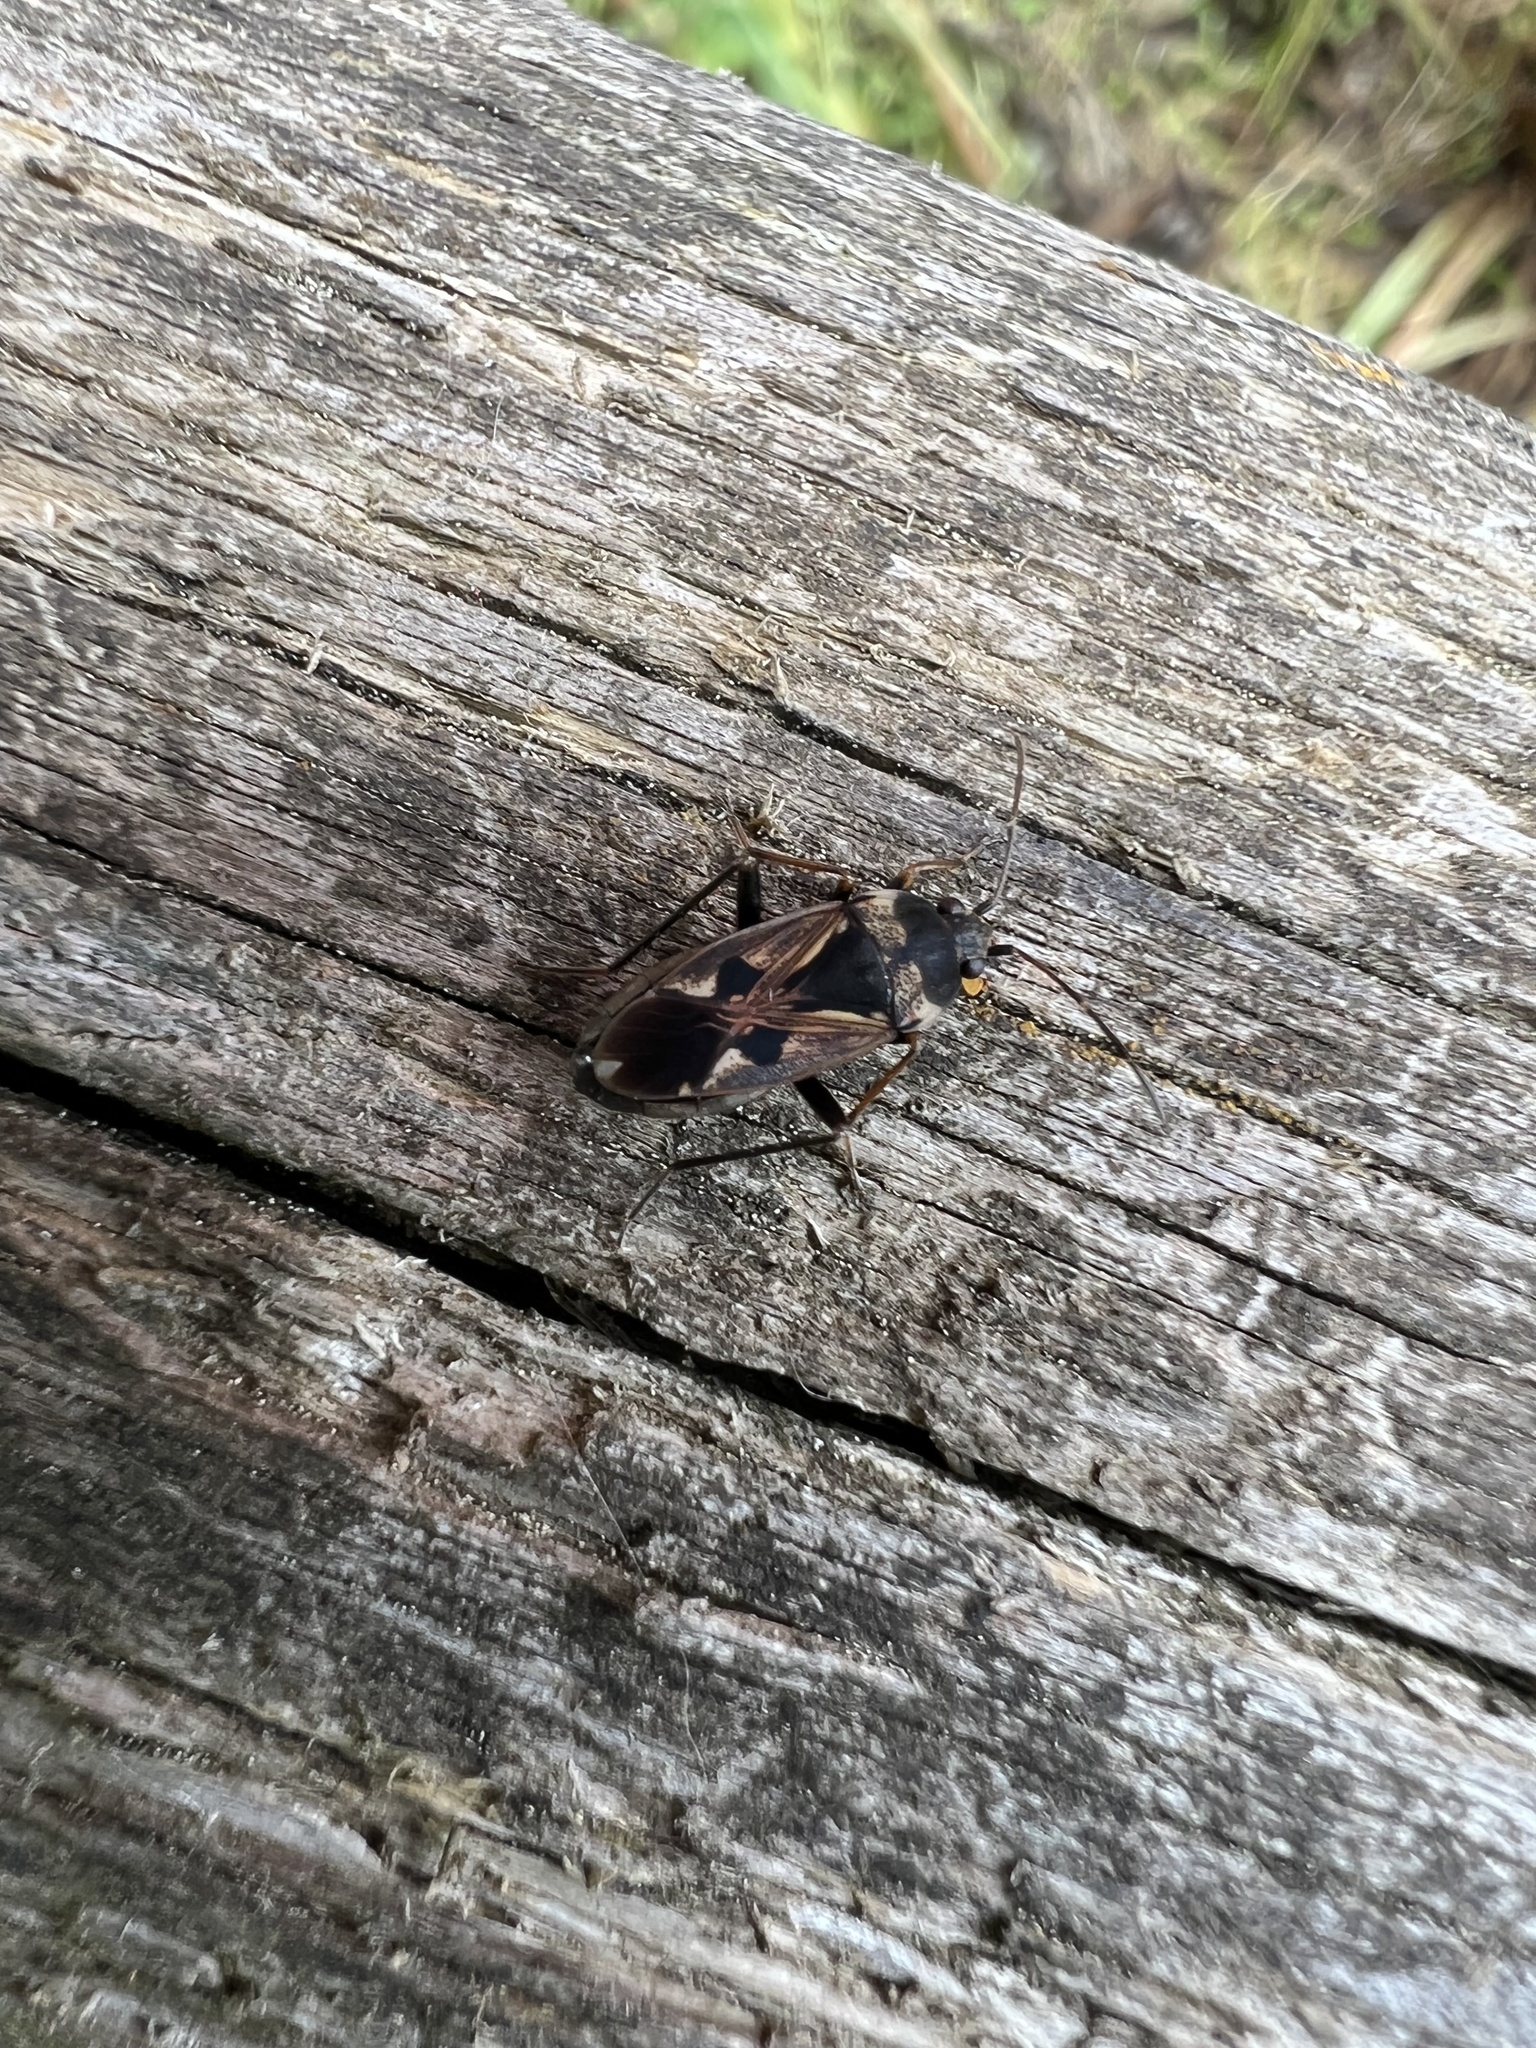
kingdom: Animalia
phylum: Arthropoda
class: Insecta
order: Hemiptera
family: Rhyparochromidae
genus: Rhyparochromus
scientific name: Rhyparochromus vulgaris
